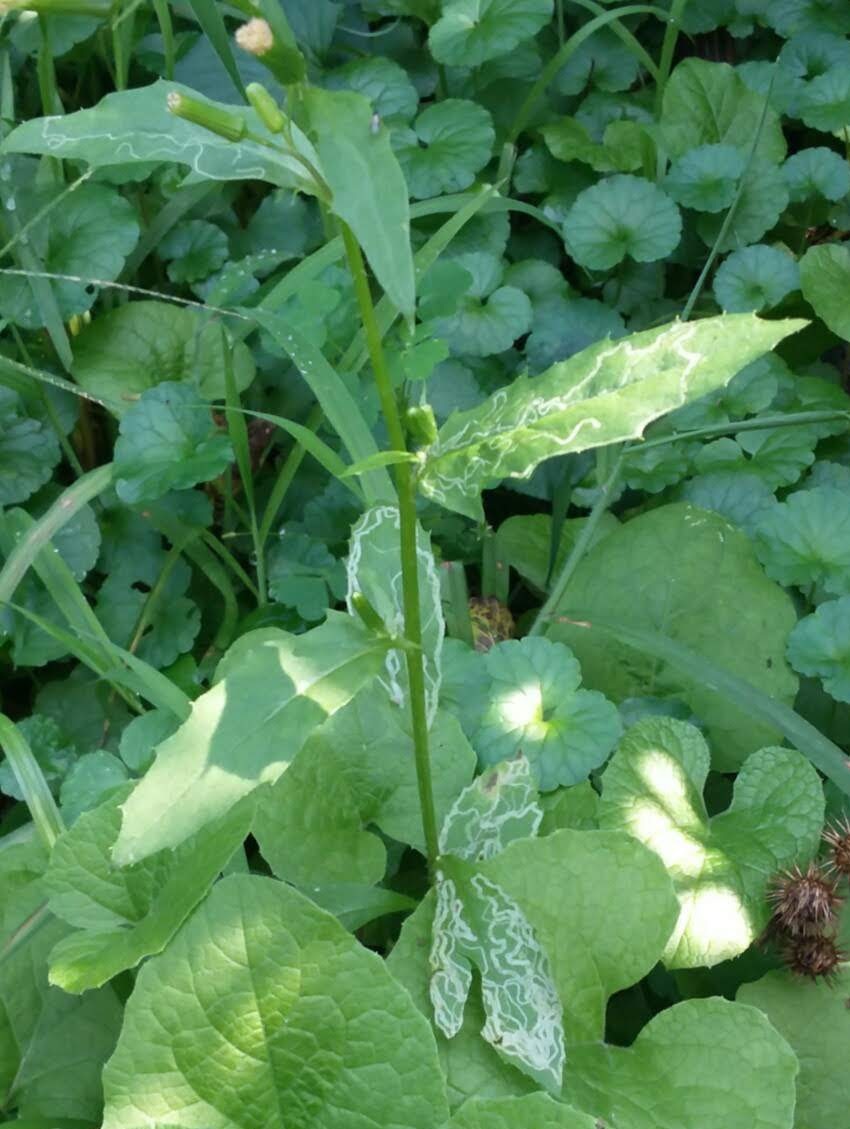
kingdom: Animalia
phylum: Arthropoda
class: Insecta
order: Lepidoptera
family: Gracillariidae
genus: Phyllocnistis
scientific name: Phyllocnistis insignis
